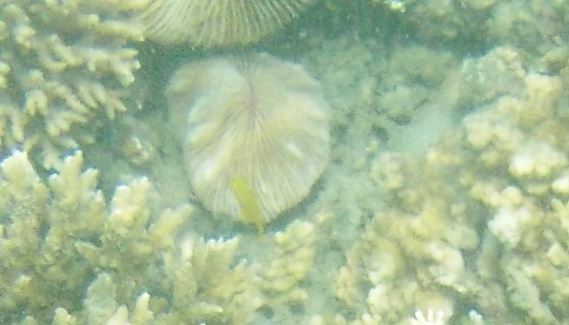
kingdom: Animalia
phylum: Cnidaria
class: Anthozoa
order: Scleractinia
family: Fungiidae
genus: Pleuractis
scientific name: Pleuractis paumotensis
